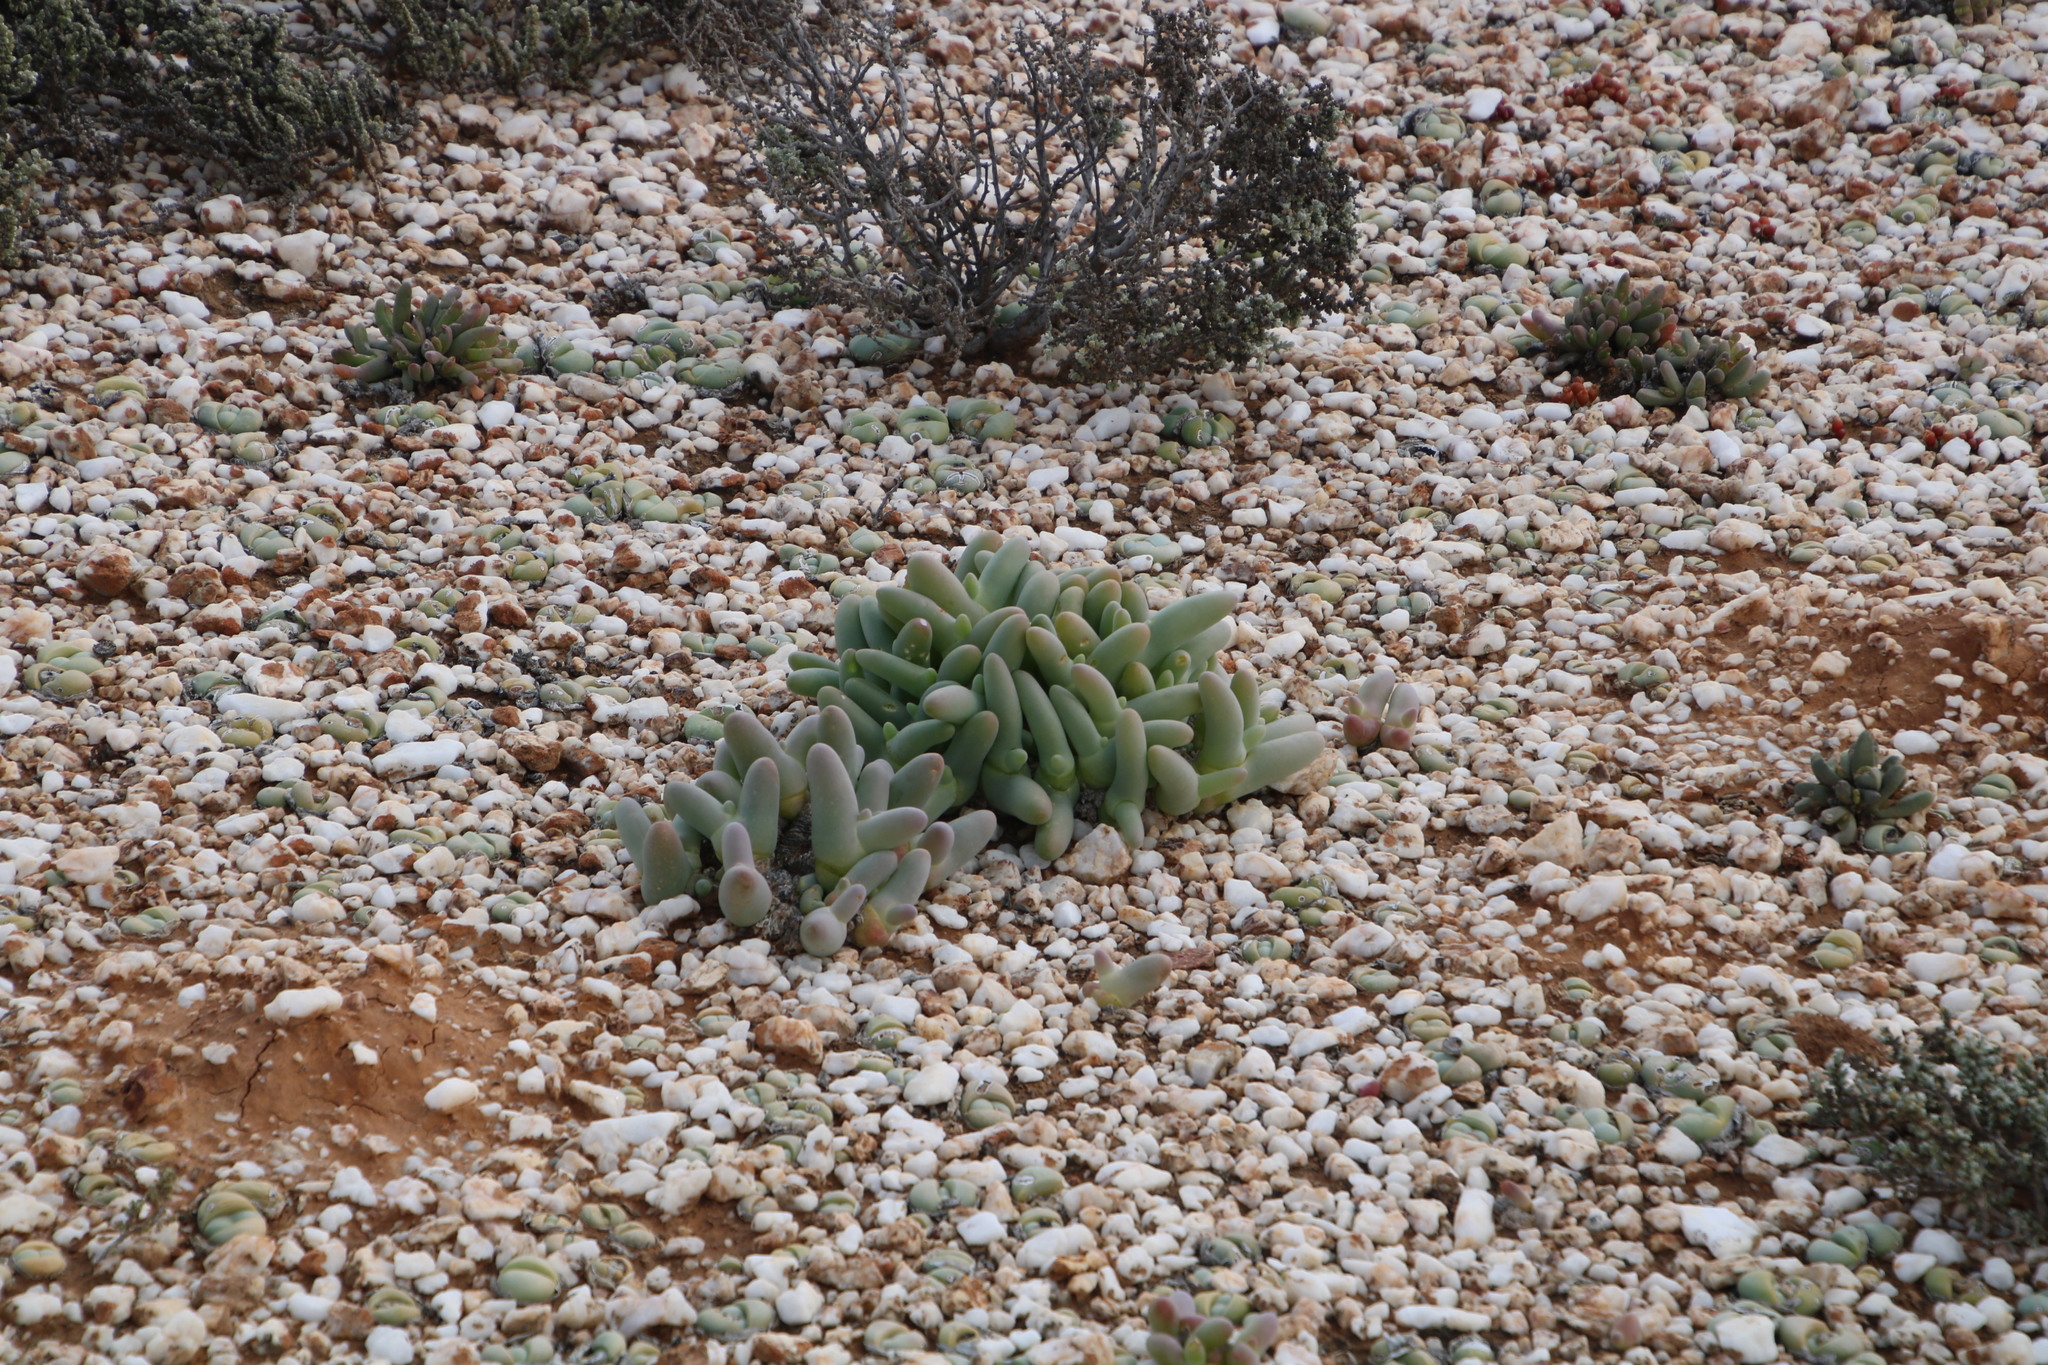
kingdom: Plantae
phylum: Tracheophyta
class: Magnoliopsida
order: Caryophyllales
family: Aizoaceae
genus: Mesembryanthemum
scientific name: Mesembryanthemum digitatum
